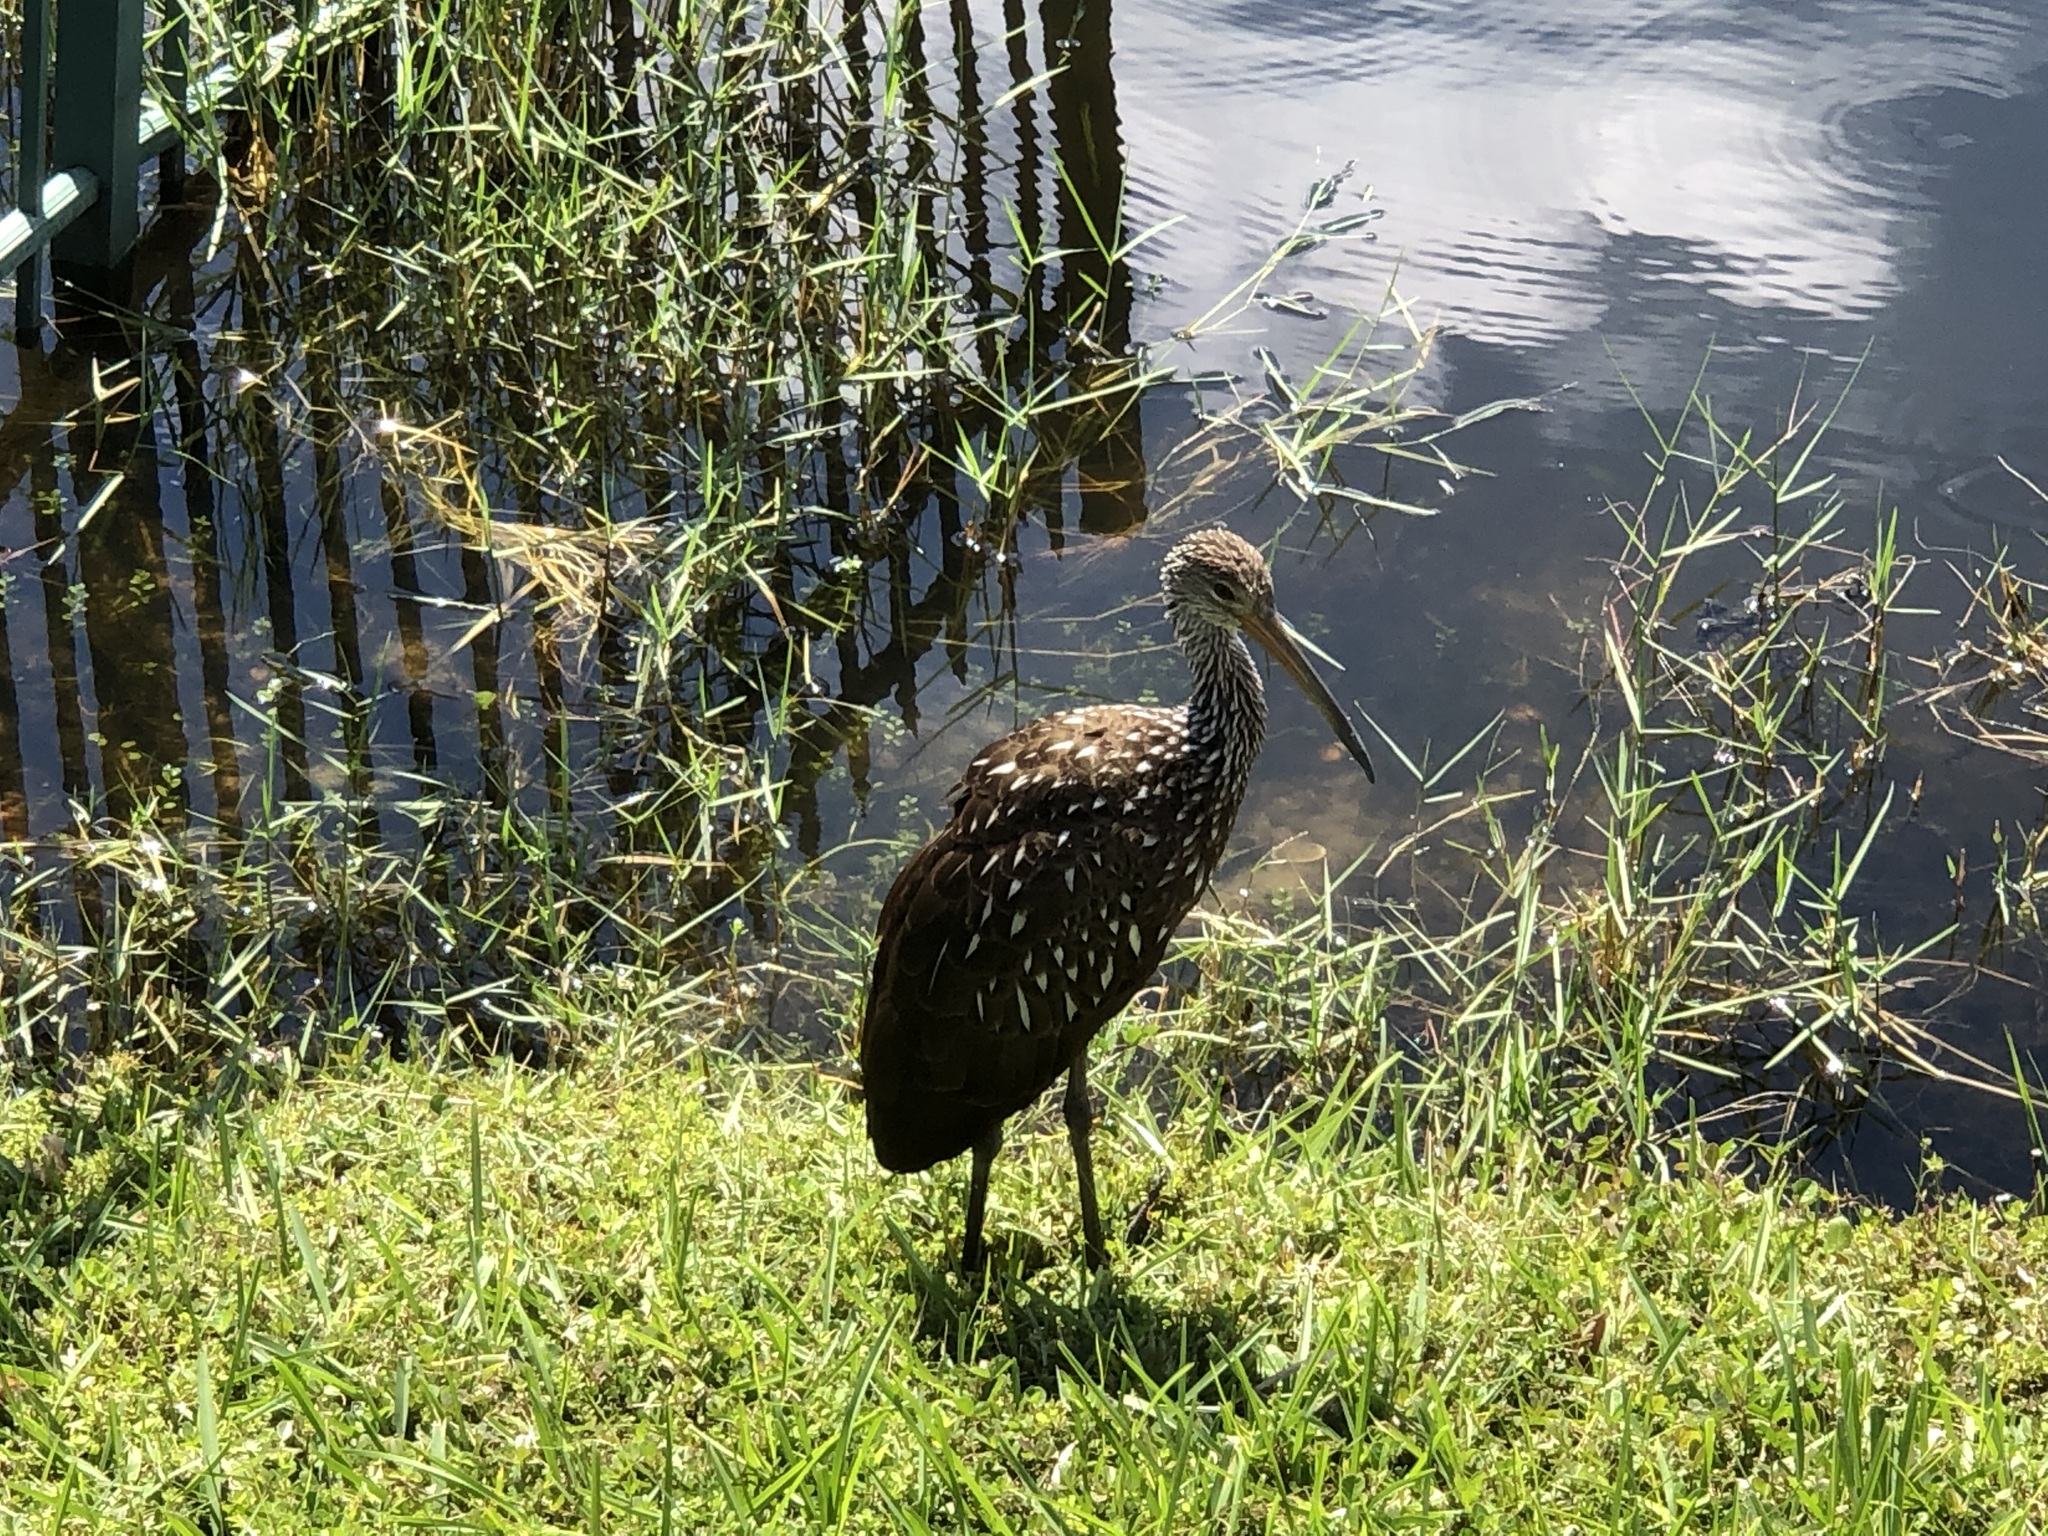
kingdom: Animalia
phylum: Chordata
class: Aves
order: Gruiformes
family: Aramidae
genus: Aramus
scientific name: Aramus guarauna
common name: Limpkin
